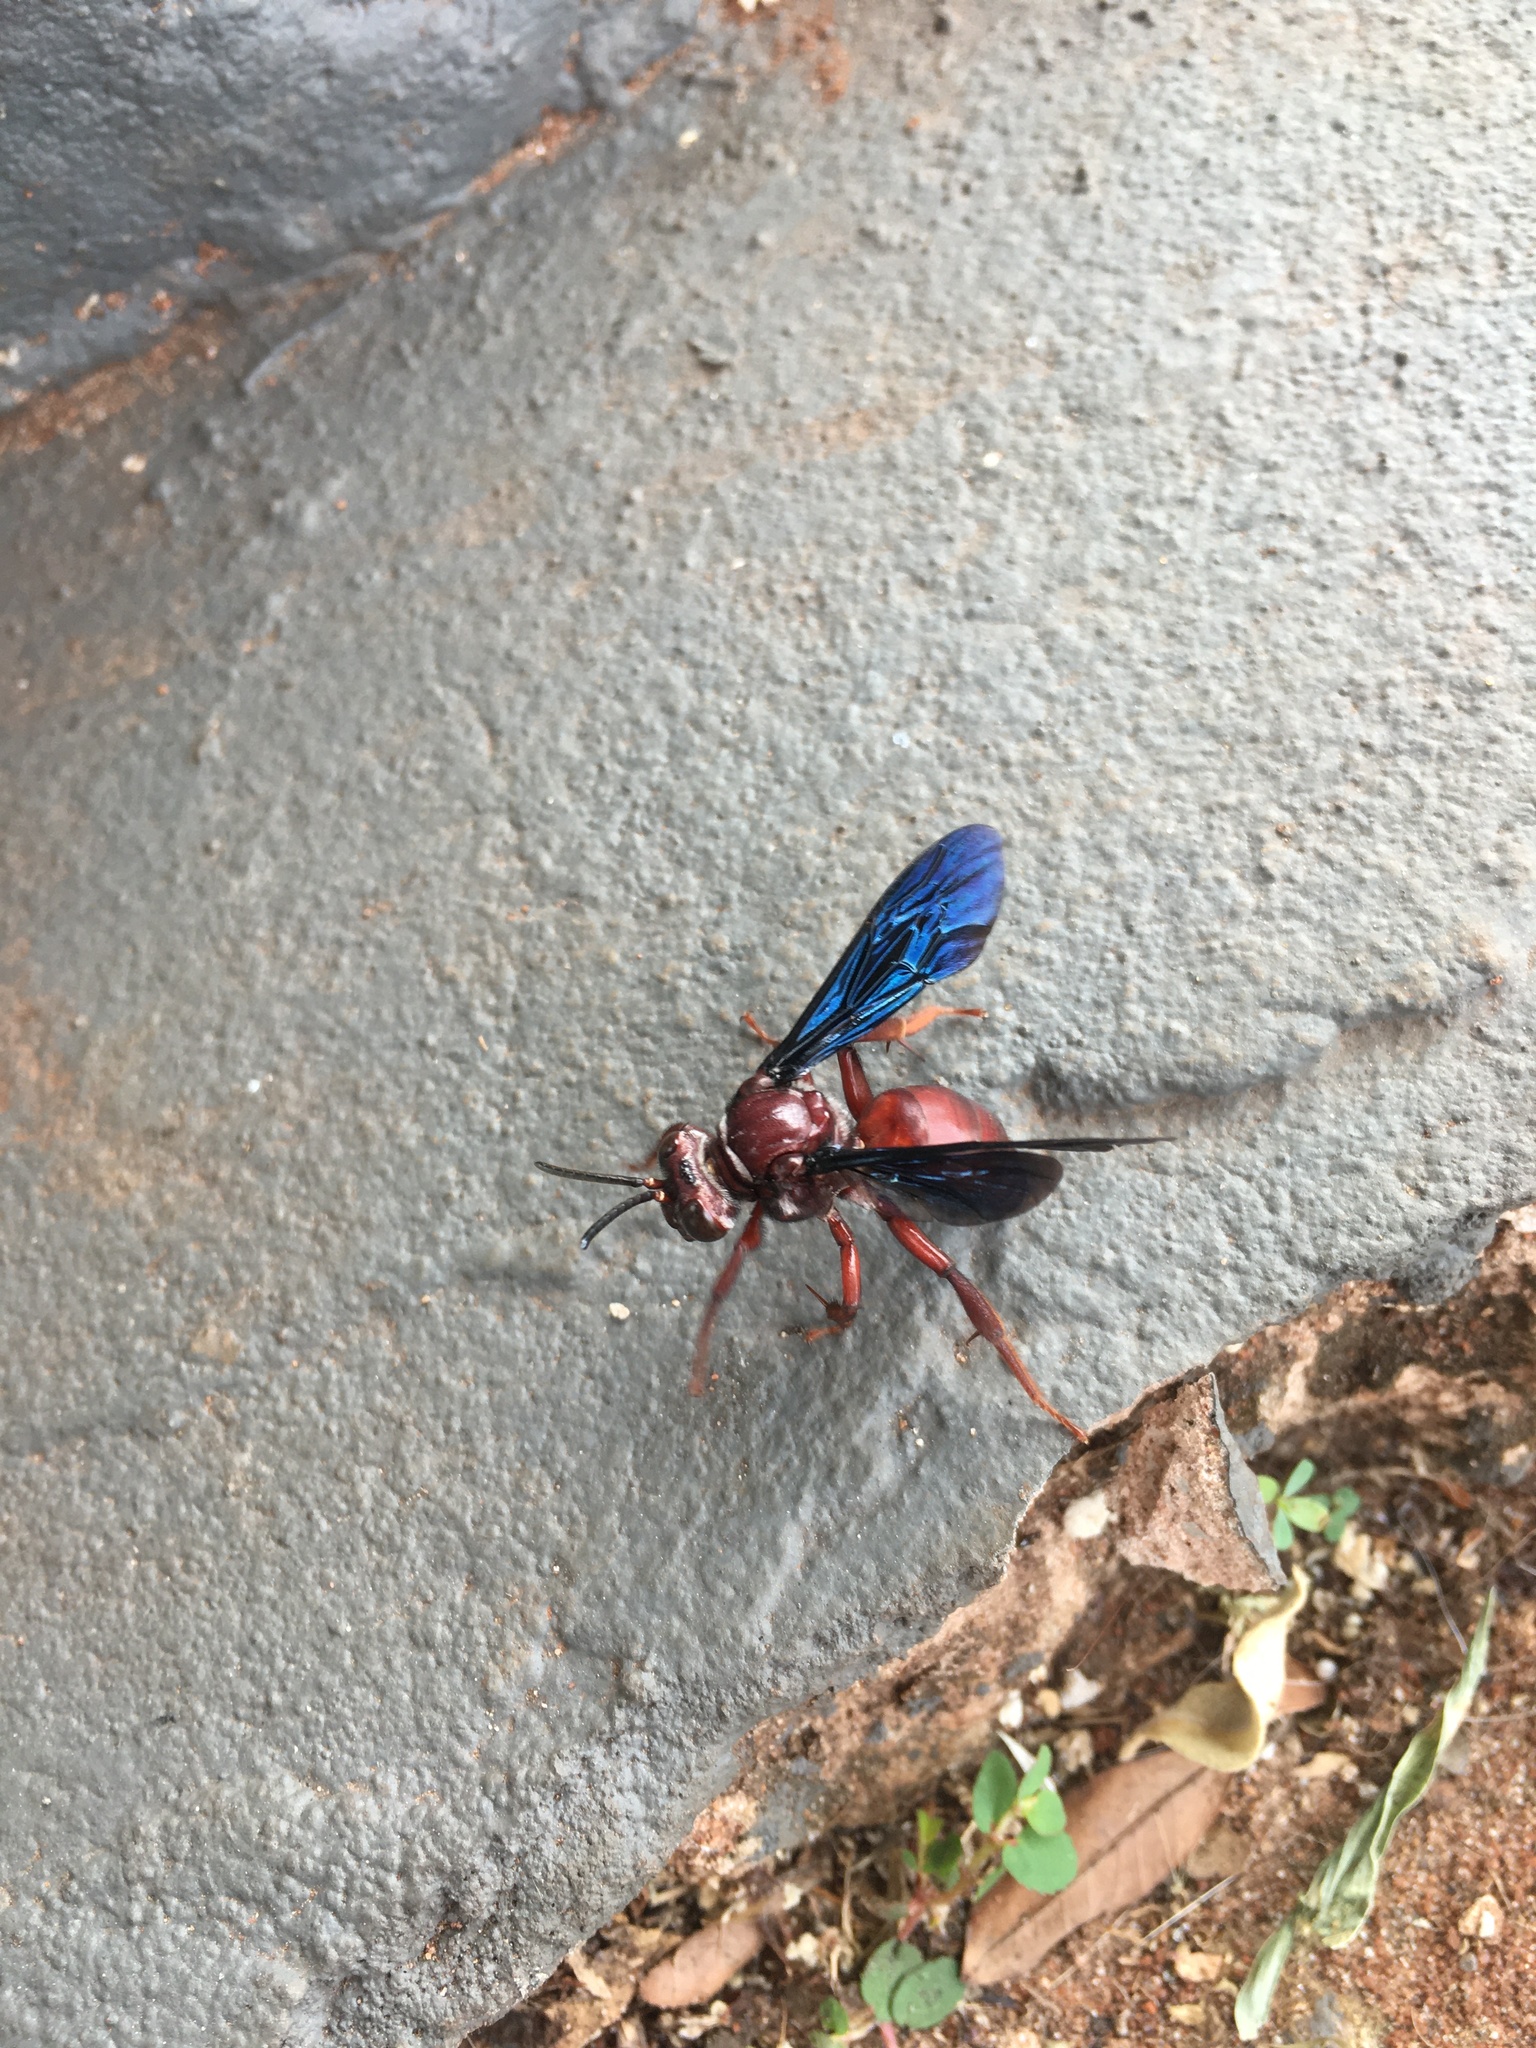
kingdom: Animalia
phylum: Arthropoda
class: Insecta
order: Hymenoptera
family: Apidae
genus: Rhathymus
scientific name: Rhathymus
